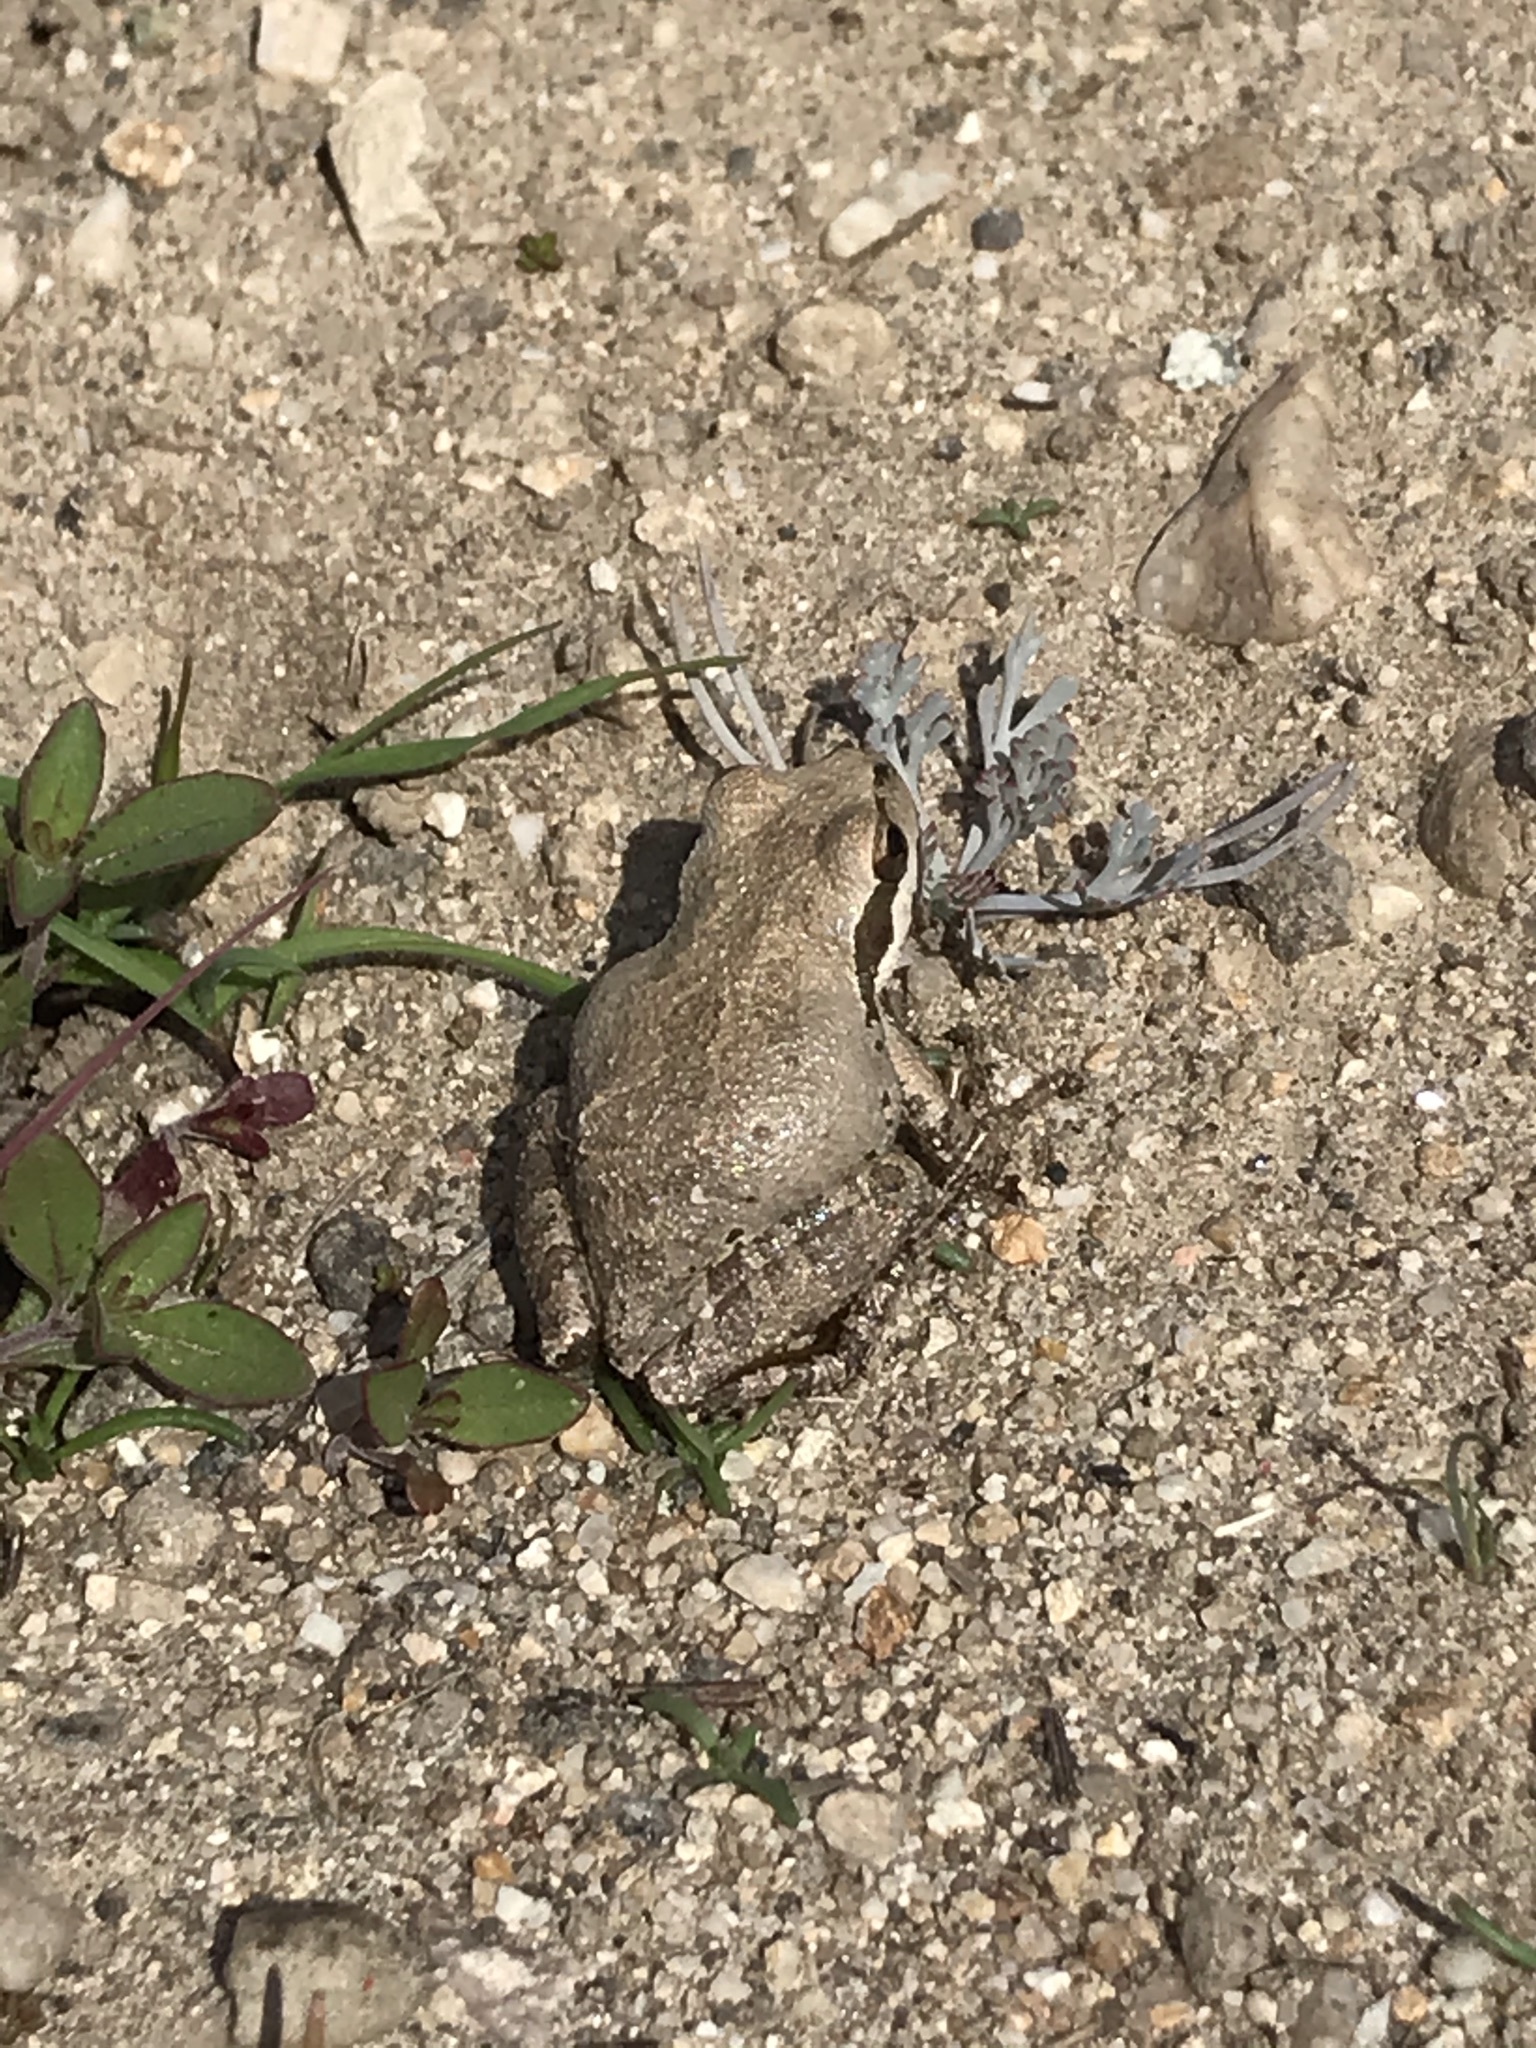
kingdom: Animalia
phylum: Chordata
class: Amphibia
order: Anura
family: Hylidae
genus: Pseudacris
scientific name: Pseudacris regilla
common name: Pacific chorus frog
